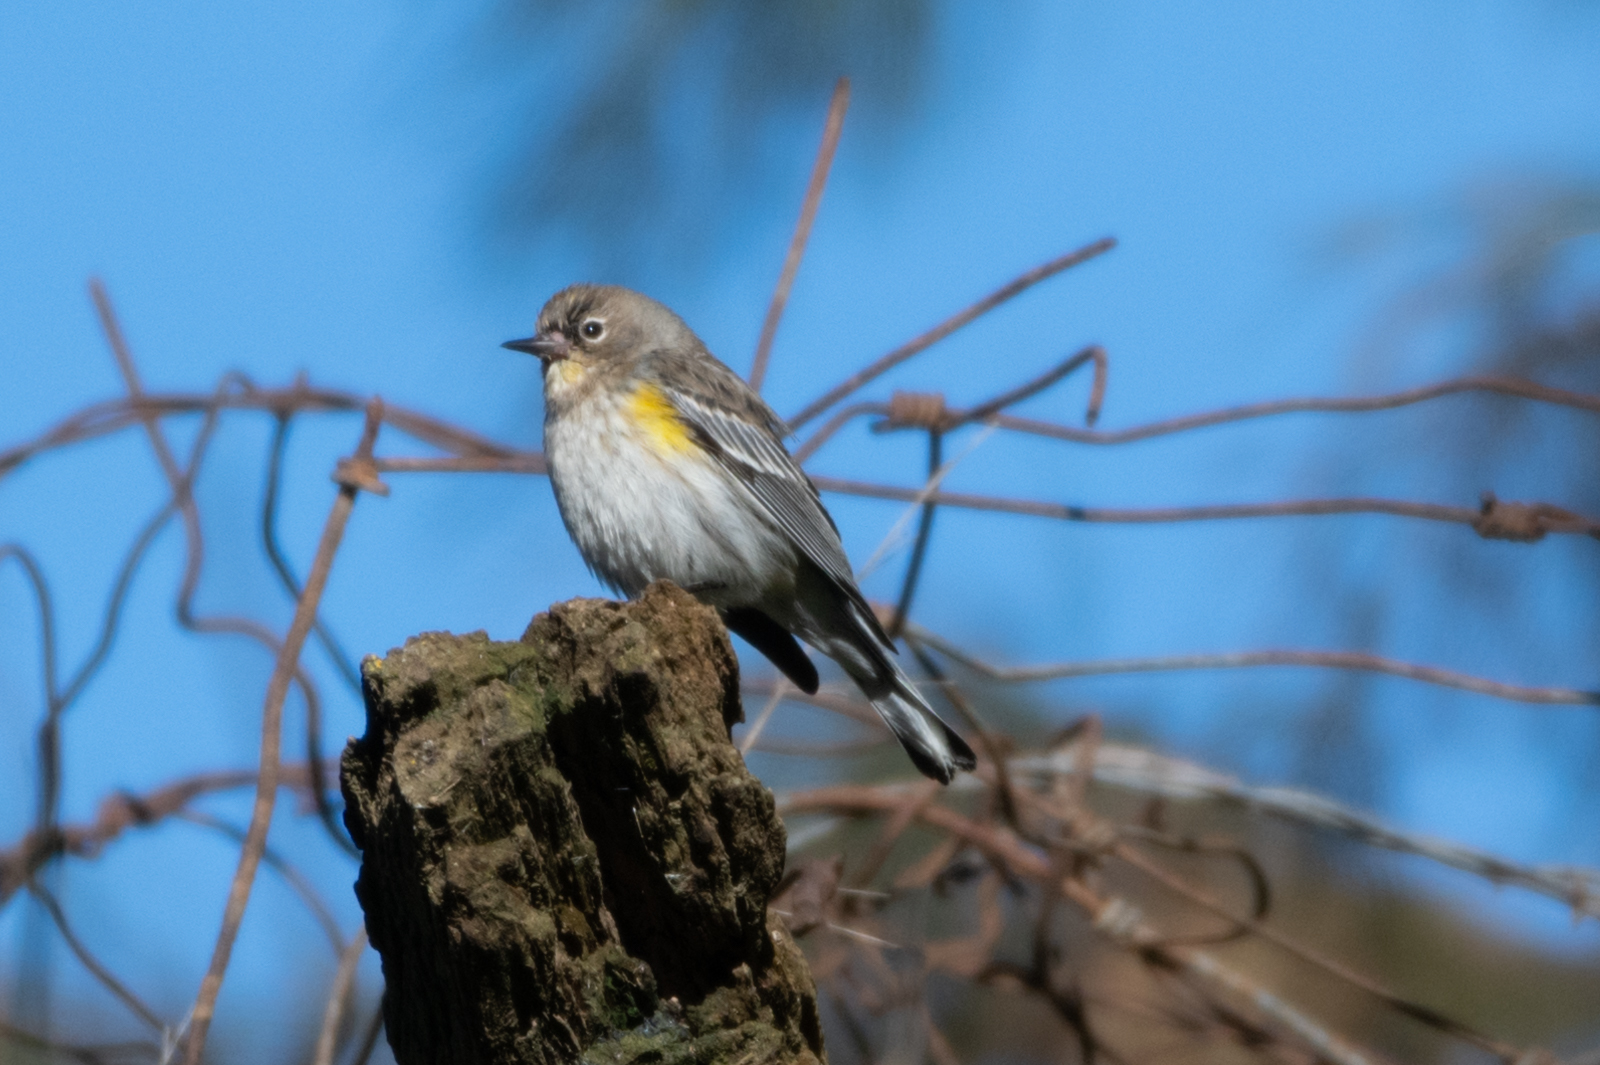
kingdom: Animalia
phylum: Chordata
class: Aves
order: Passeriformes
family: Parulidae
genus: Setophaga
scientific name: Setophaga coronata
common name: Myrtle warbler
